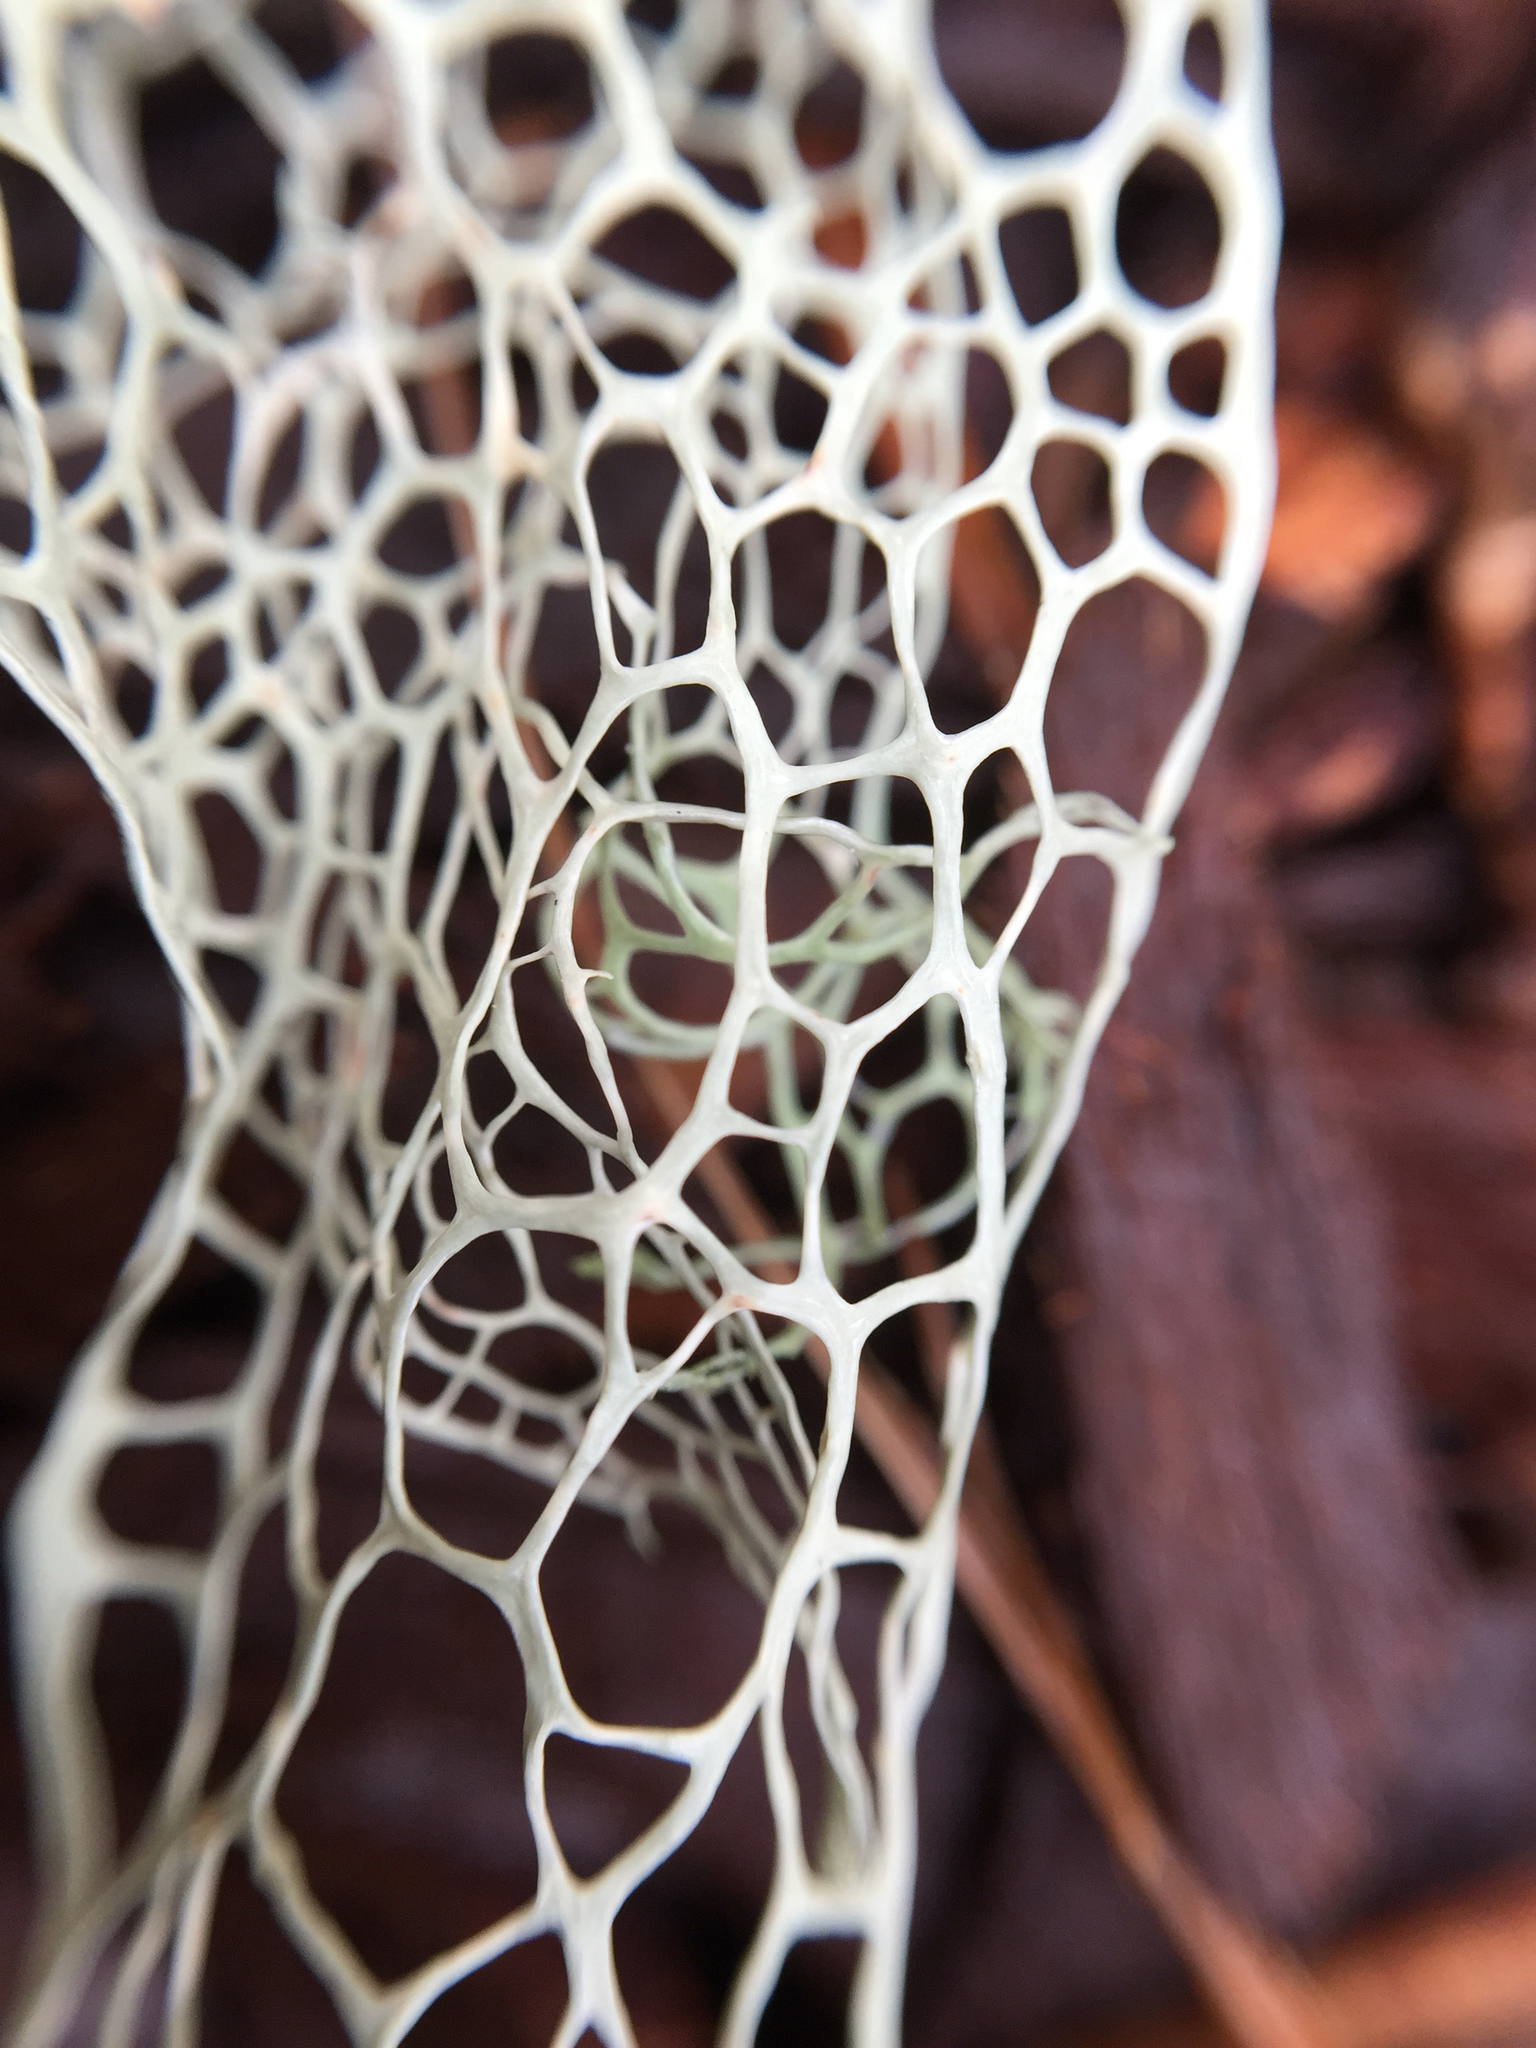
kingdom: Fungi
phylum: Ascomycota
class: Lecanoromycetes
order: Lecanorales
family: Ramalinaceae
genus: Ramalina
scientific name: Ramalina menziesii
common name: Lace lichen
